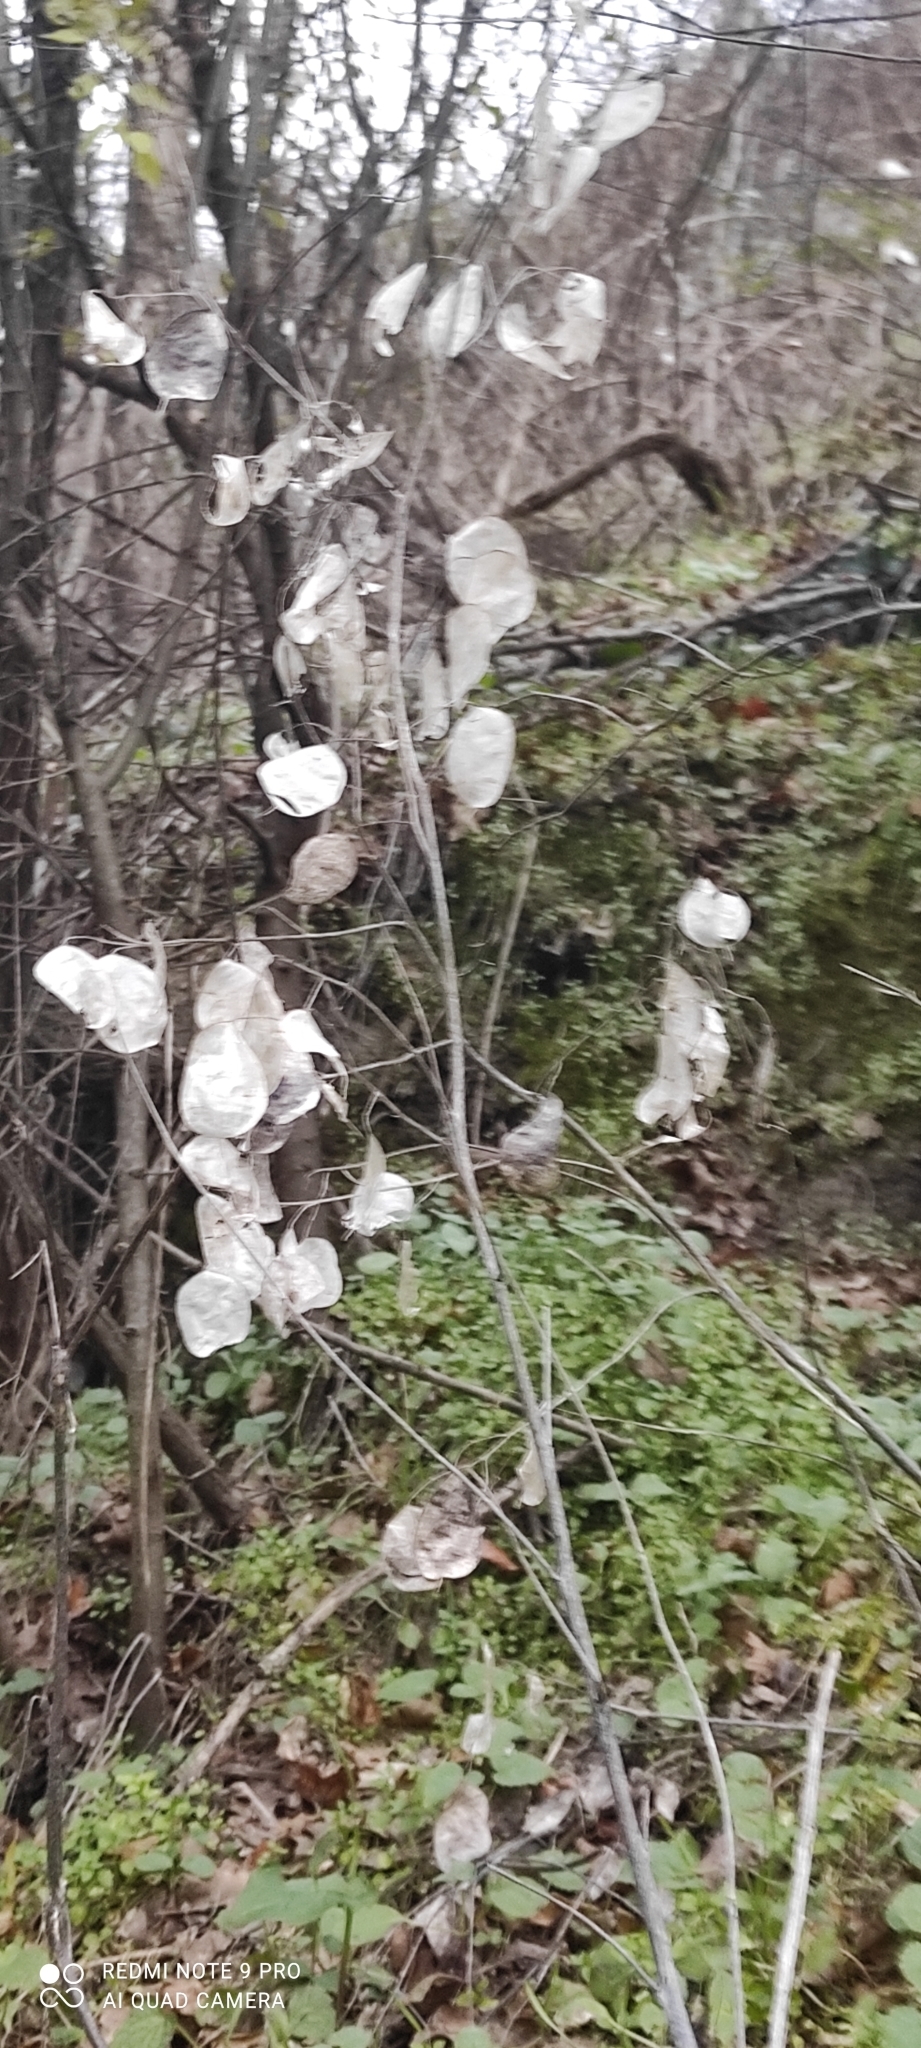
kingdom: Plantae
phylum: Tracheophyta
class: Magnoliopsida
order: Brassicales
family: Brassicaceae
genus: Lunaria
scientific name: Lunaria annua
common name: Honesty
